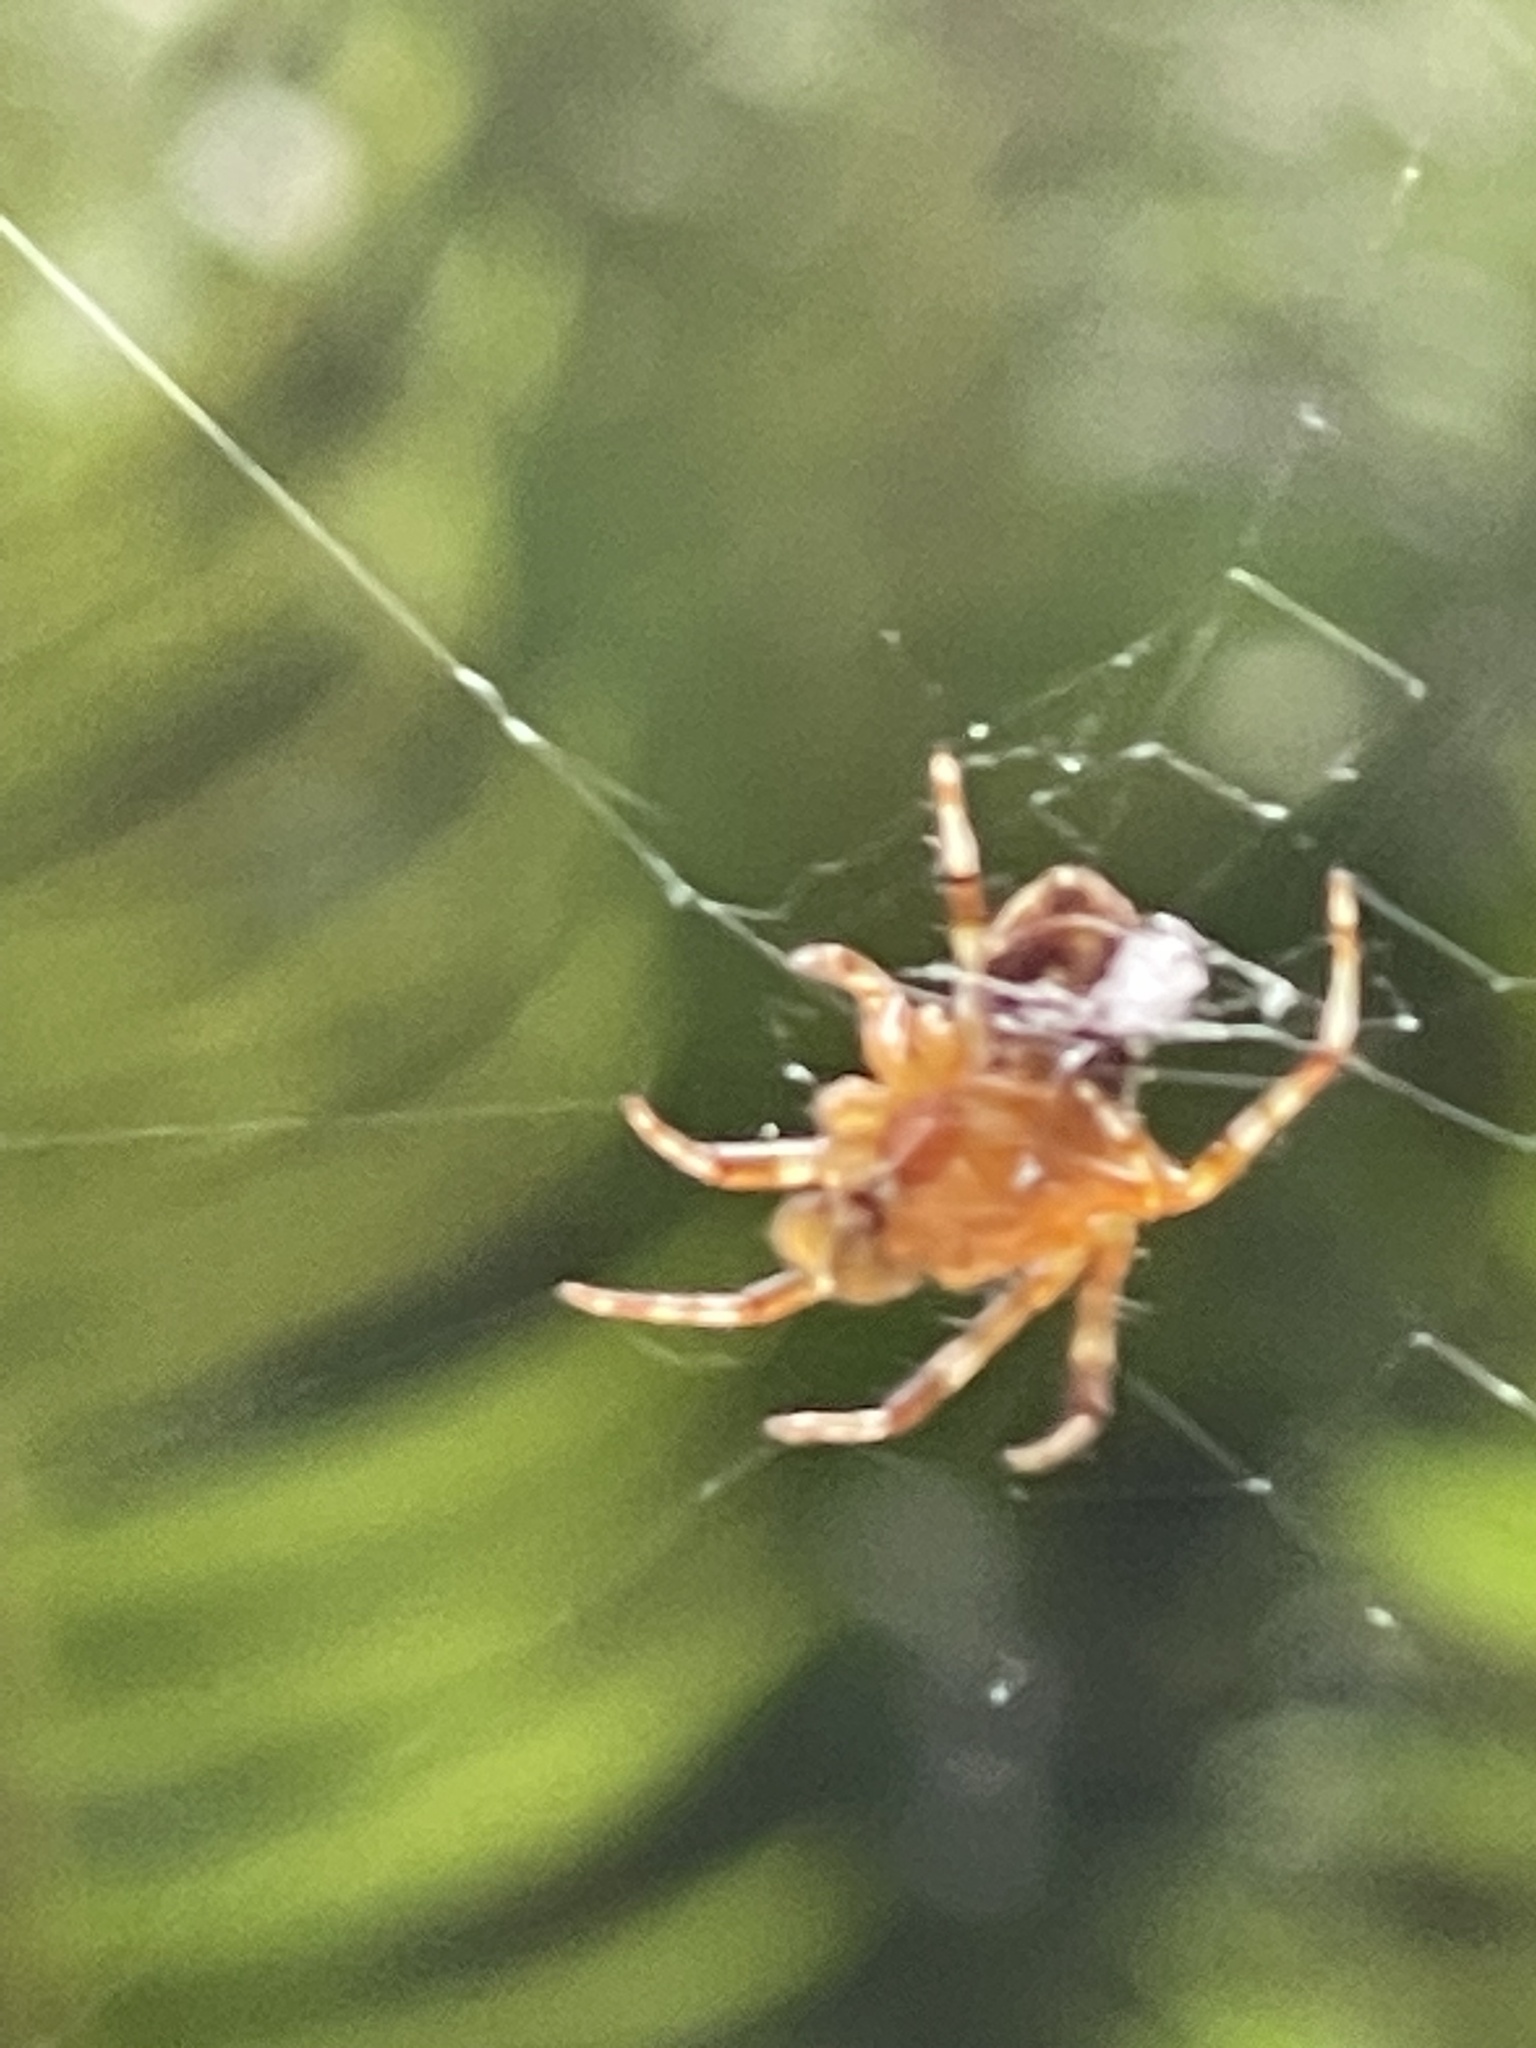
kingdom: Animalia
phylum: Arthropoda
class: Arachnida
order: Araneae
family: Araneidae
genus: Araneus
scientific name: Araneus diadematus
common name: Cross orbweaver
